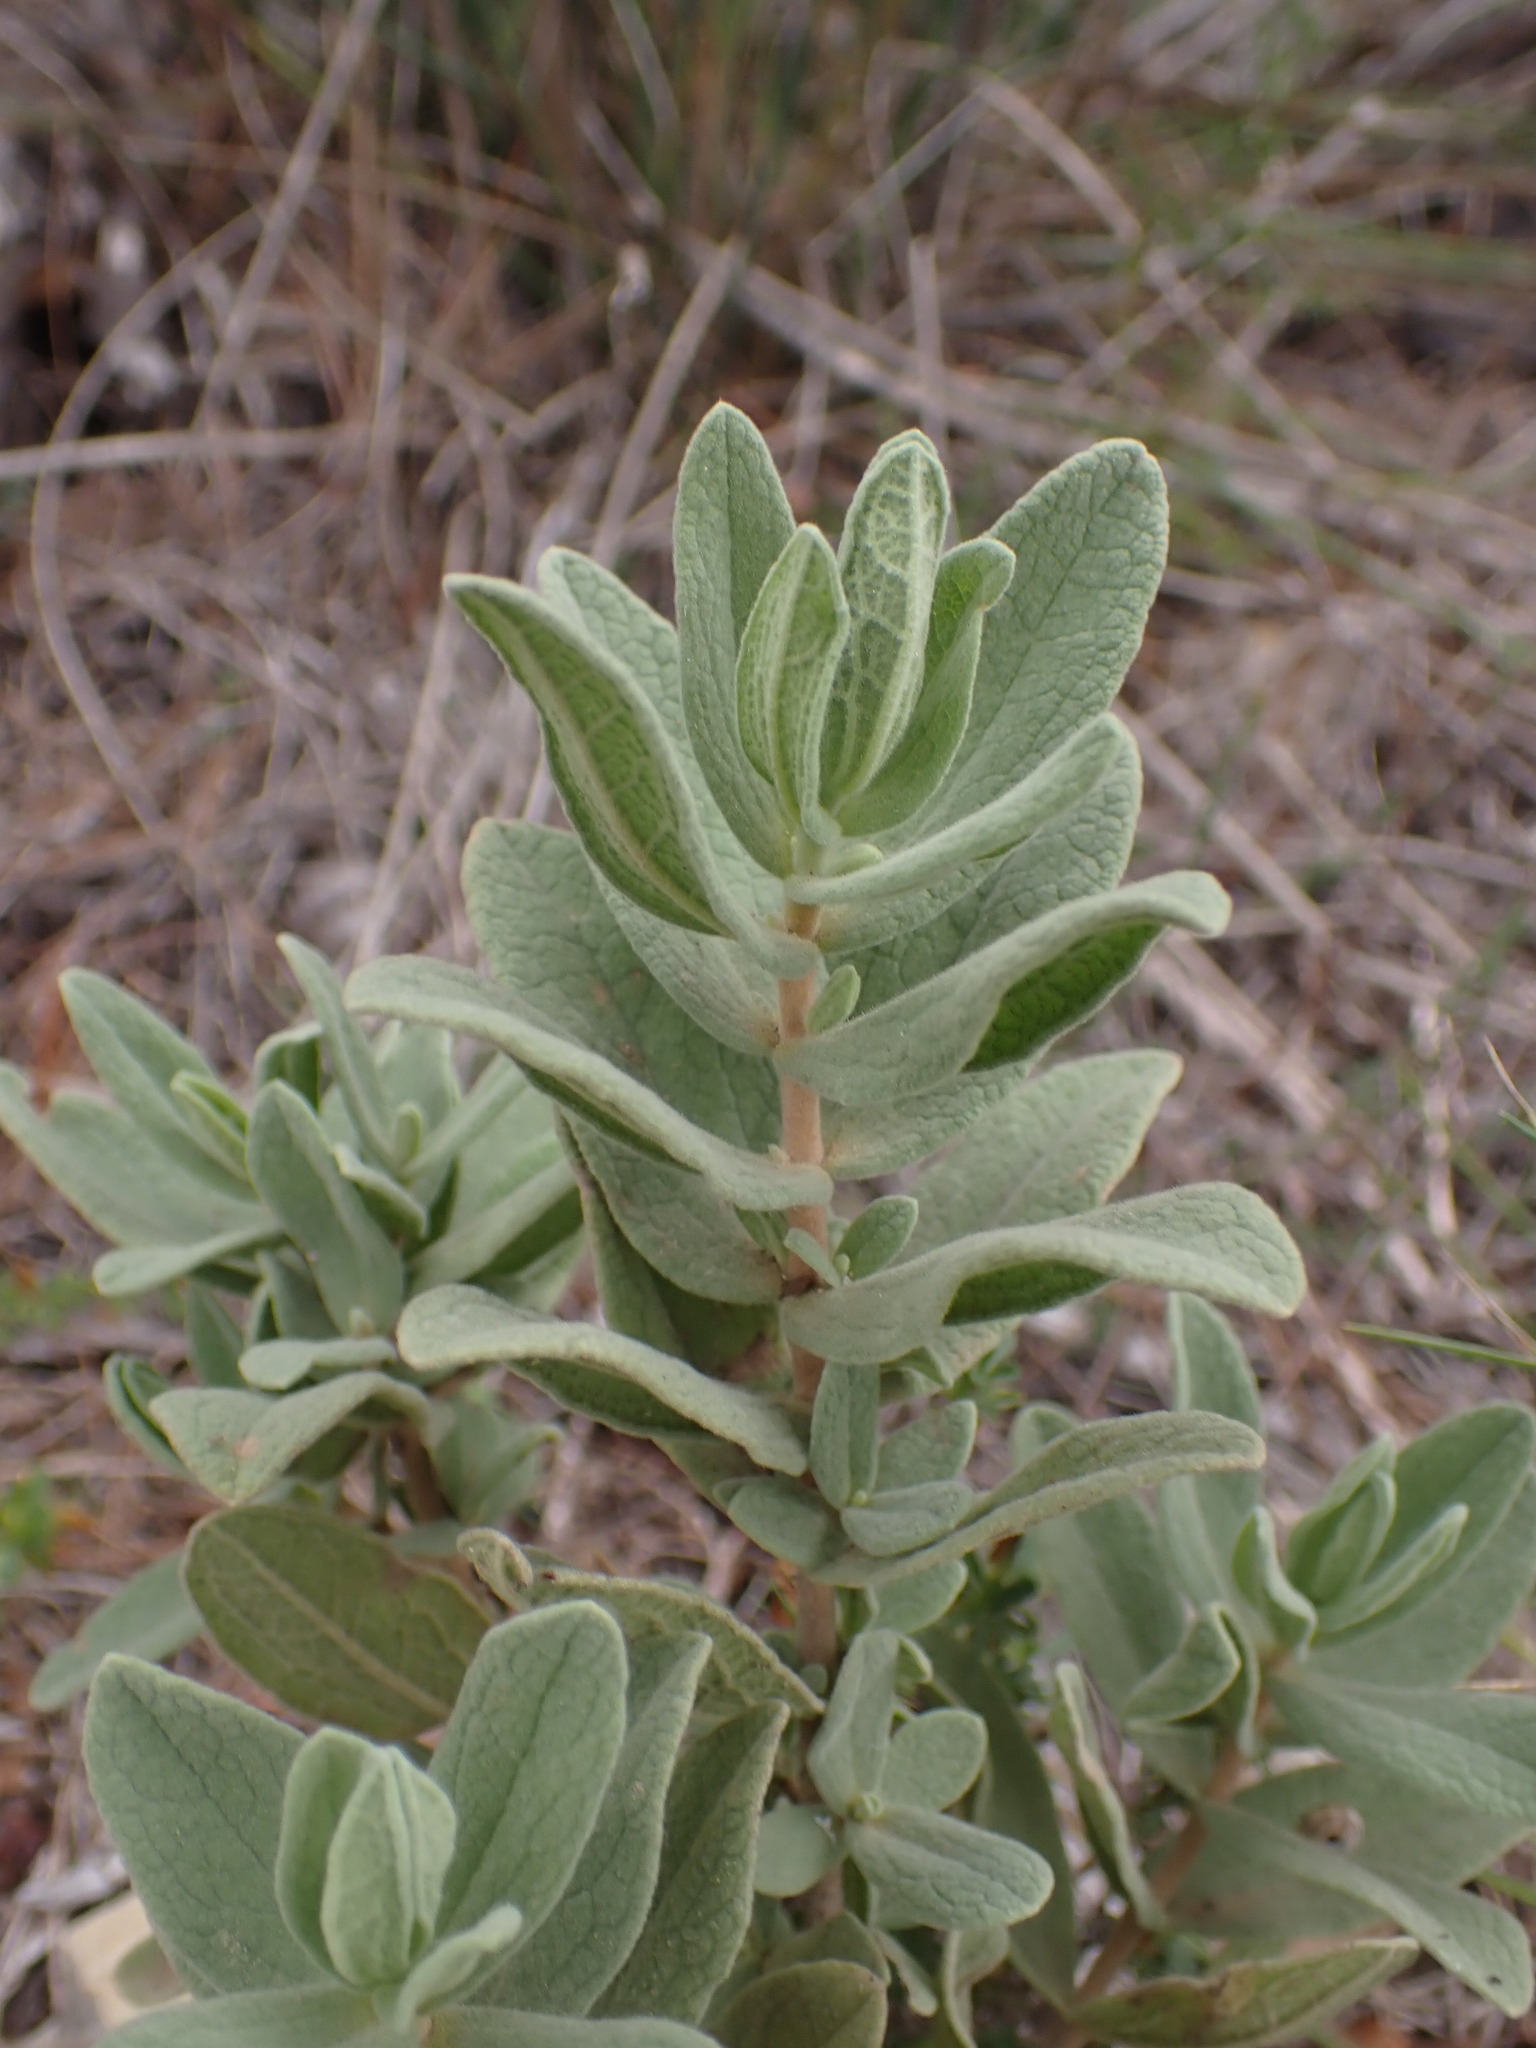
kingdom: Plantae
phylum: Tracheophyta
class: Magnoliopsida
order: Malvales
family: Cistaceae
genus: Cistus
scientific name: Cistus albidus
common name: White-leaf rock-rose
